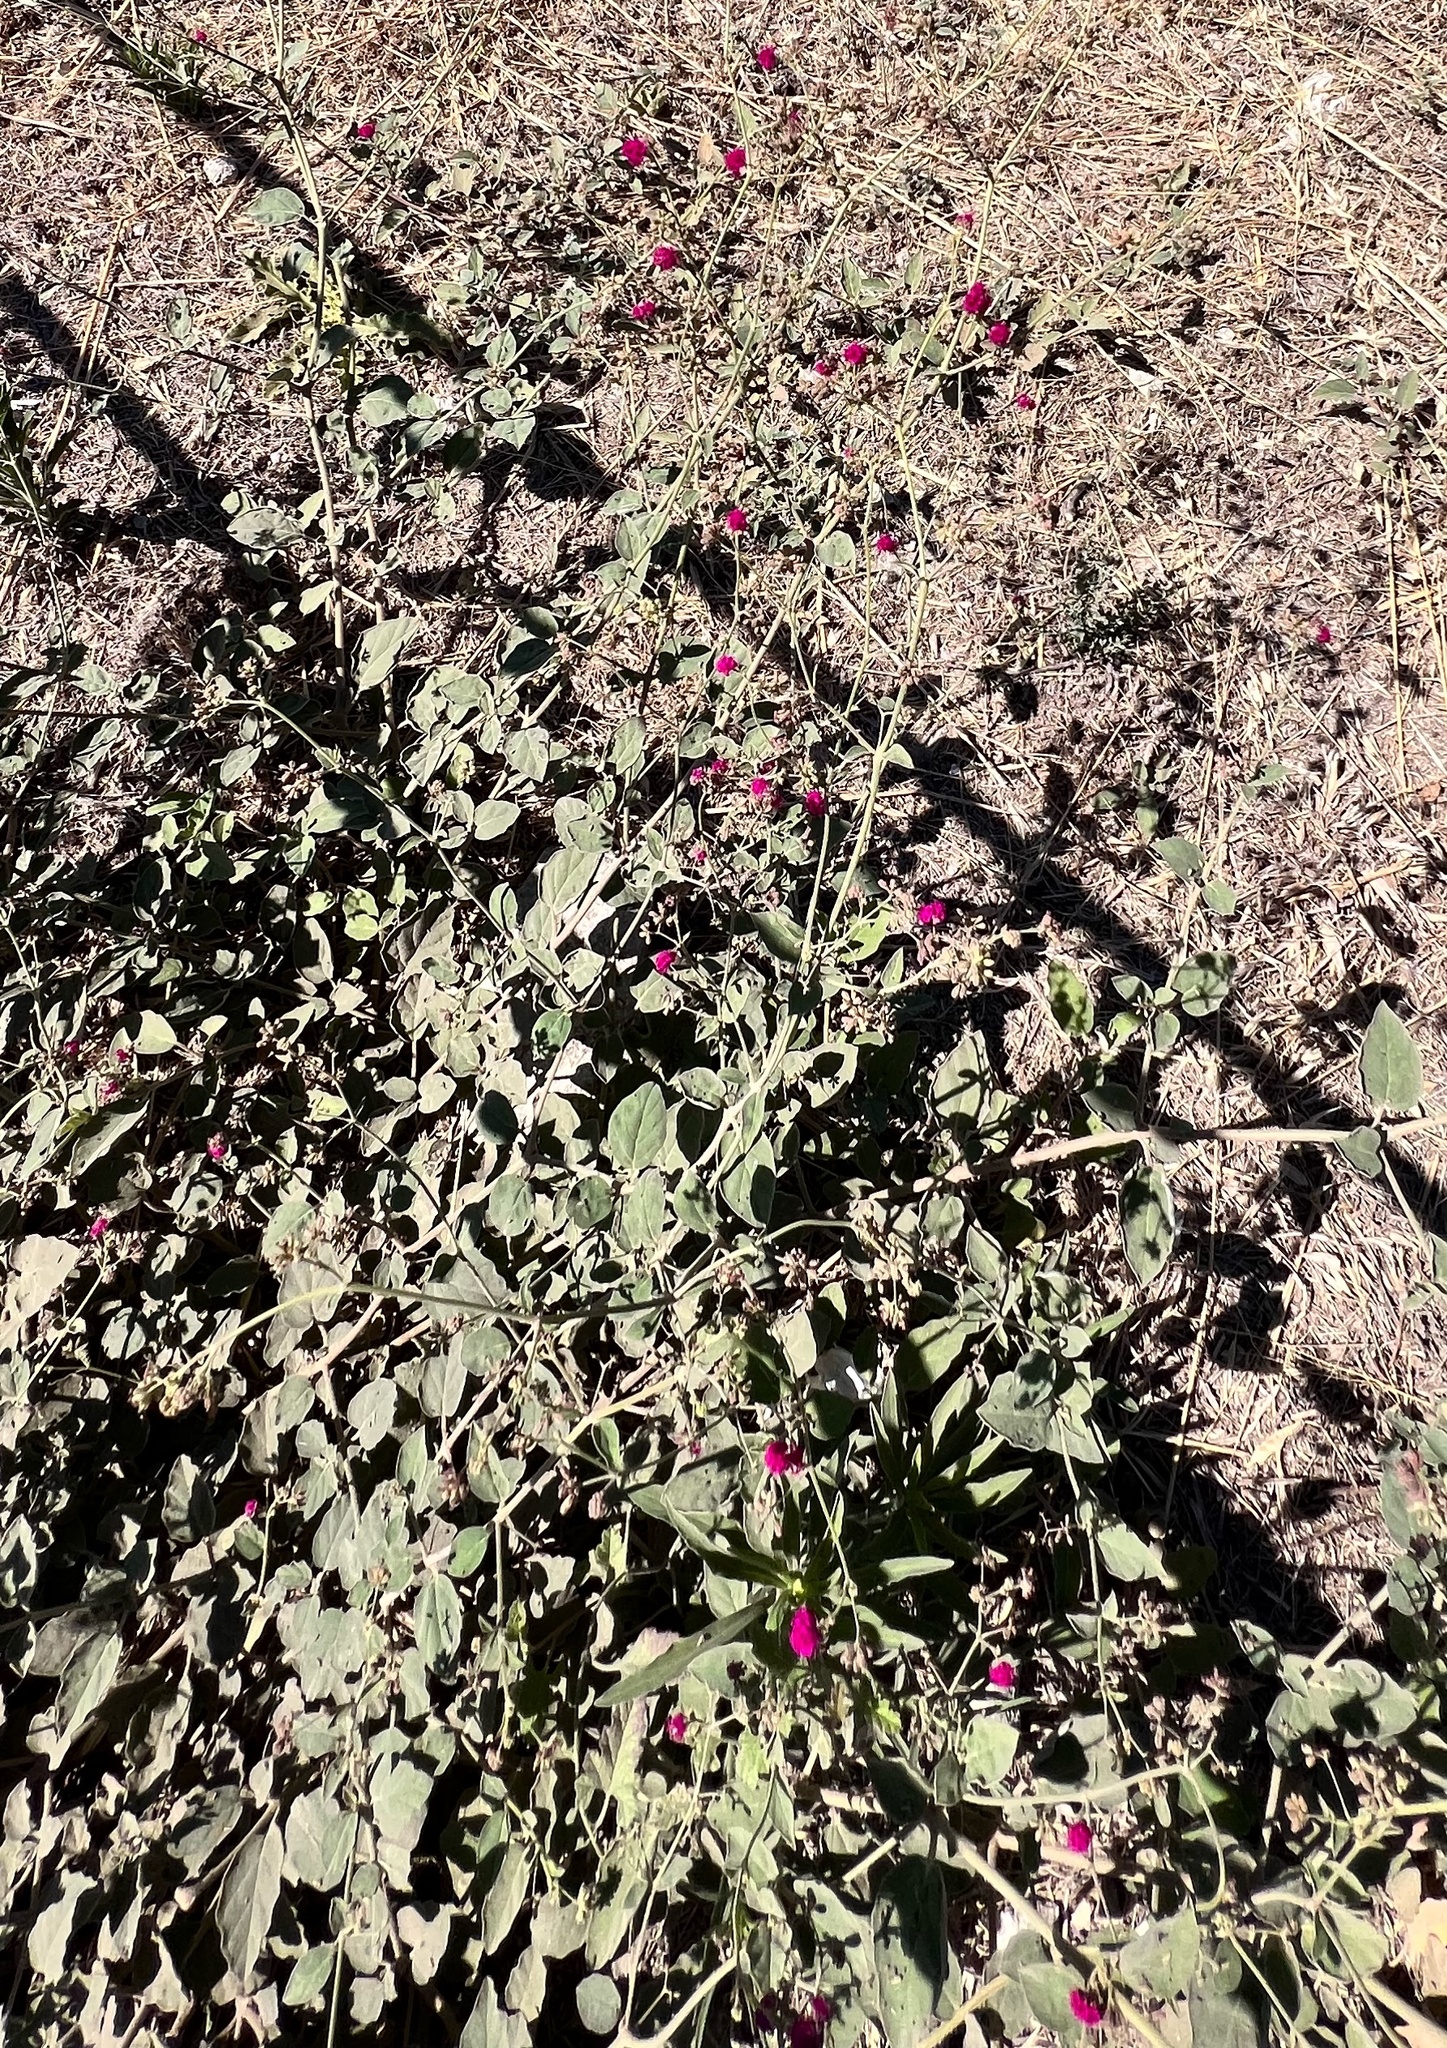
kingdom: Plantae
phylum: Tracheophyta
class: Magnoliopsida
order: Caryophyllales
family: Nyctaginaceae
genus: Boerhavia
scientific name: Boerhavia coccinea
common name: Scarlet spiderling
